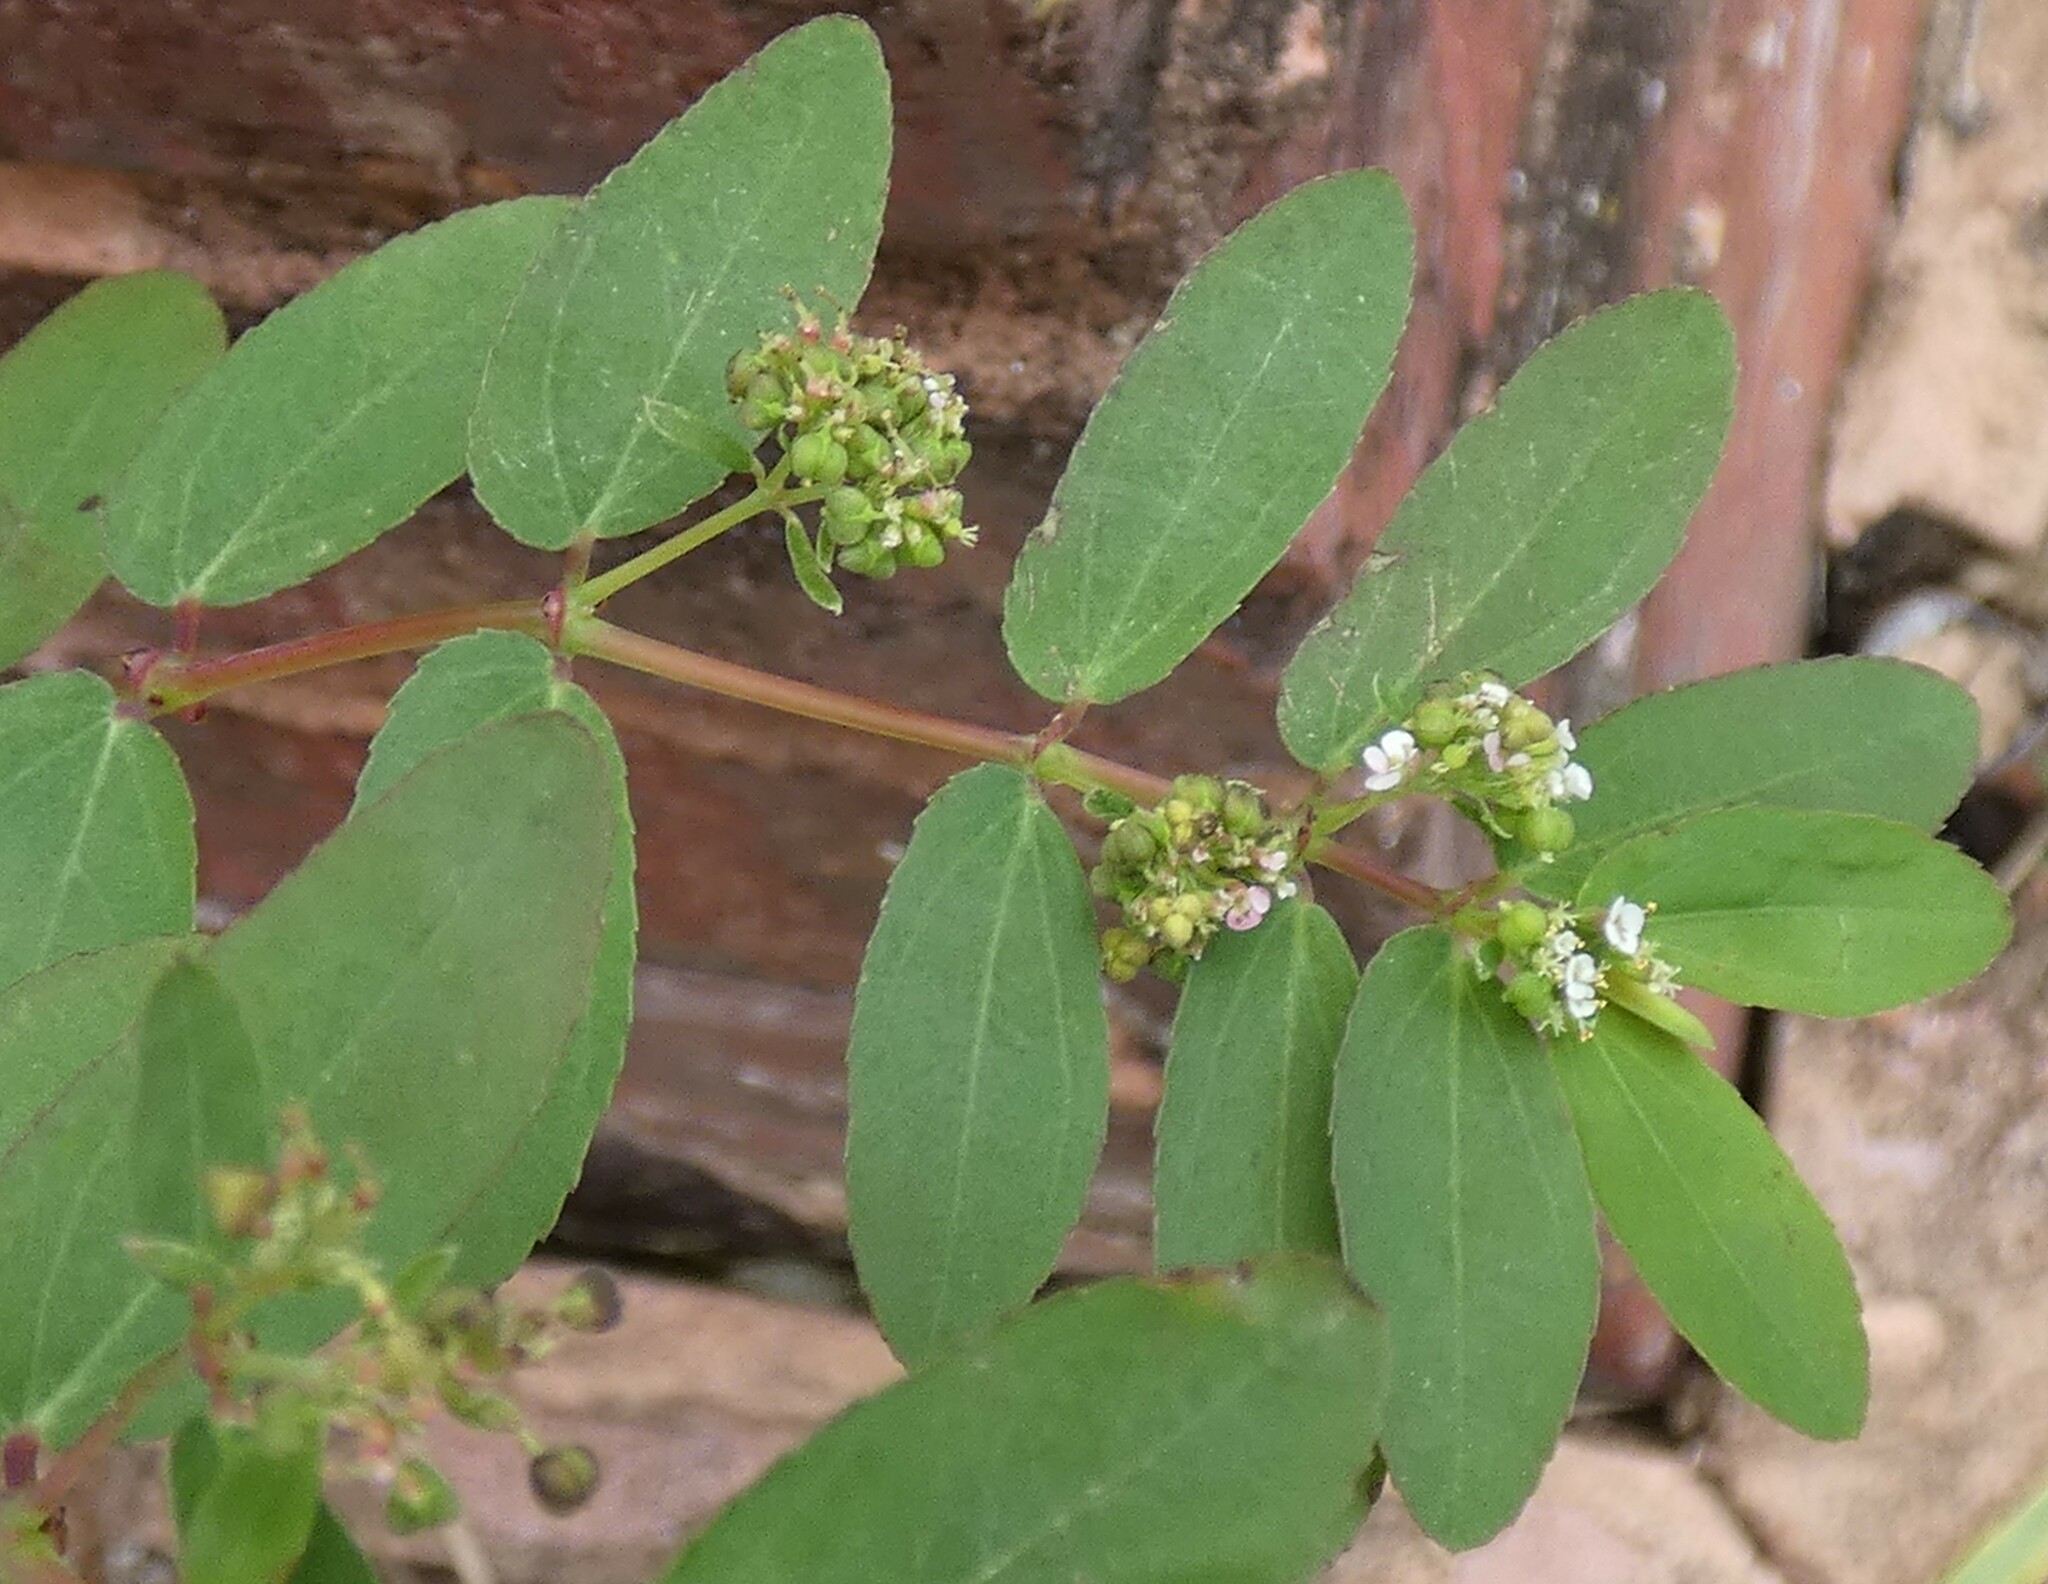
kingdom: Plantae
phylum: Tracheophyta
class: Magnoliopsida
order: Malpighiales
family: Euphorbiaceae
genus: Euphorbia
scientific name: Euphorbia hypericifolia
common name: Graceful sandmat
